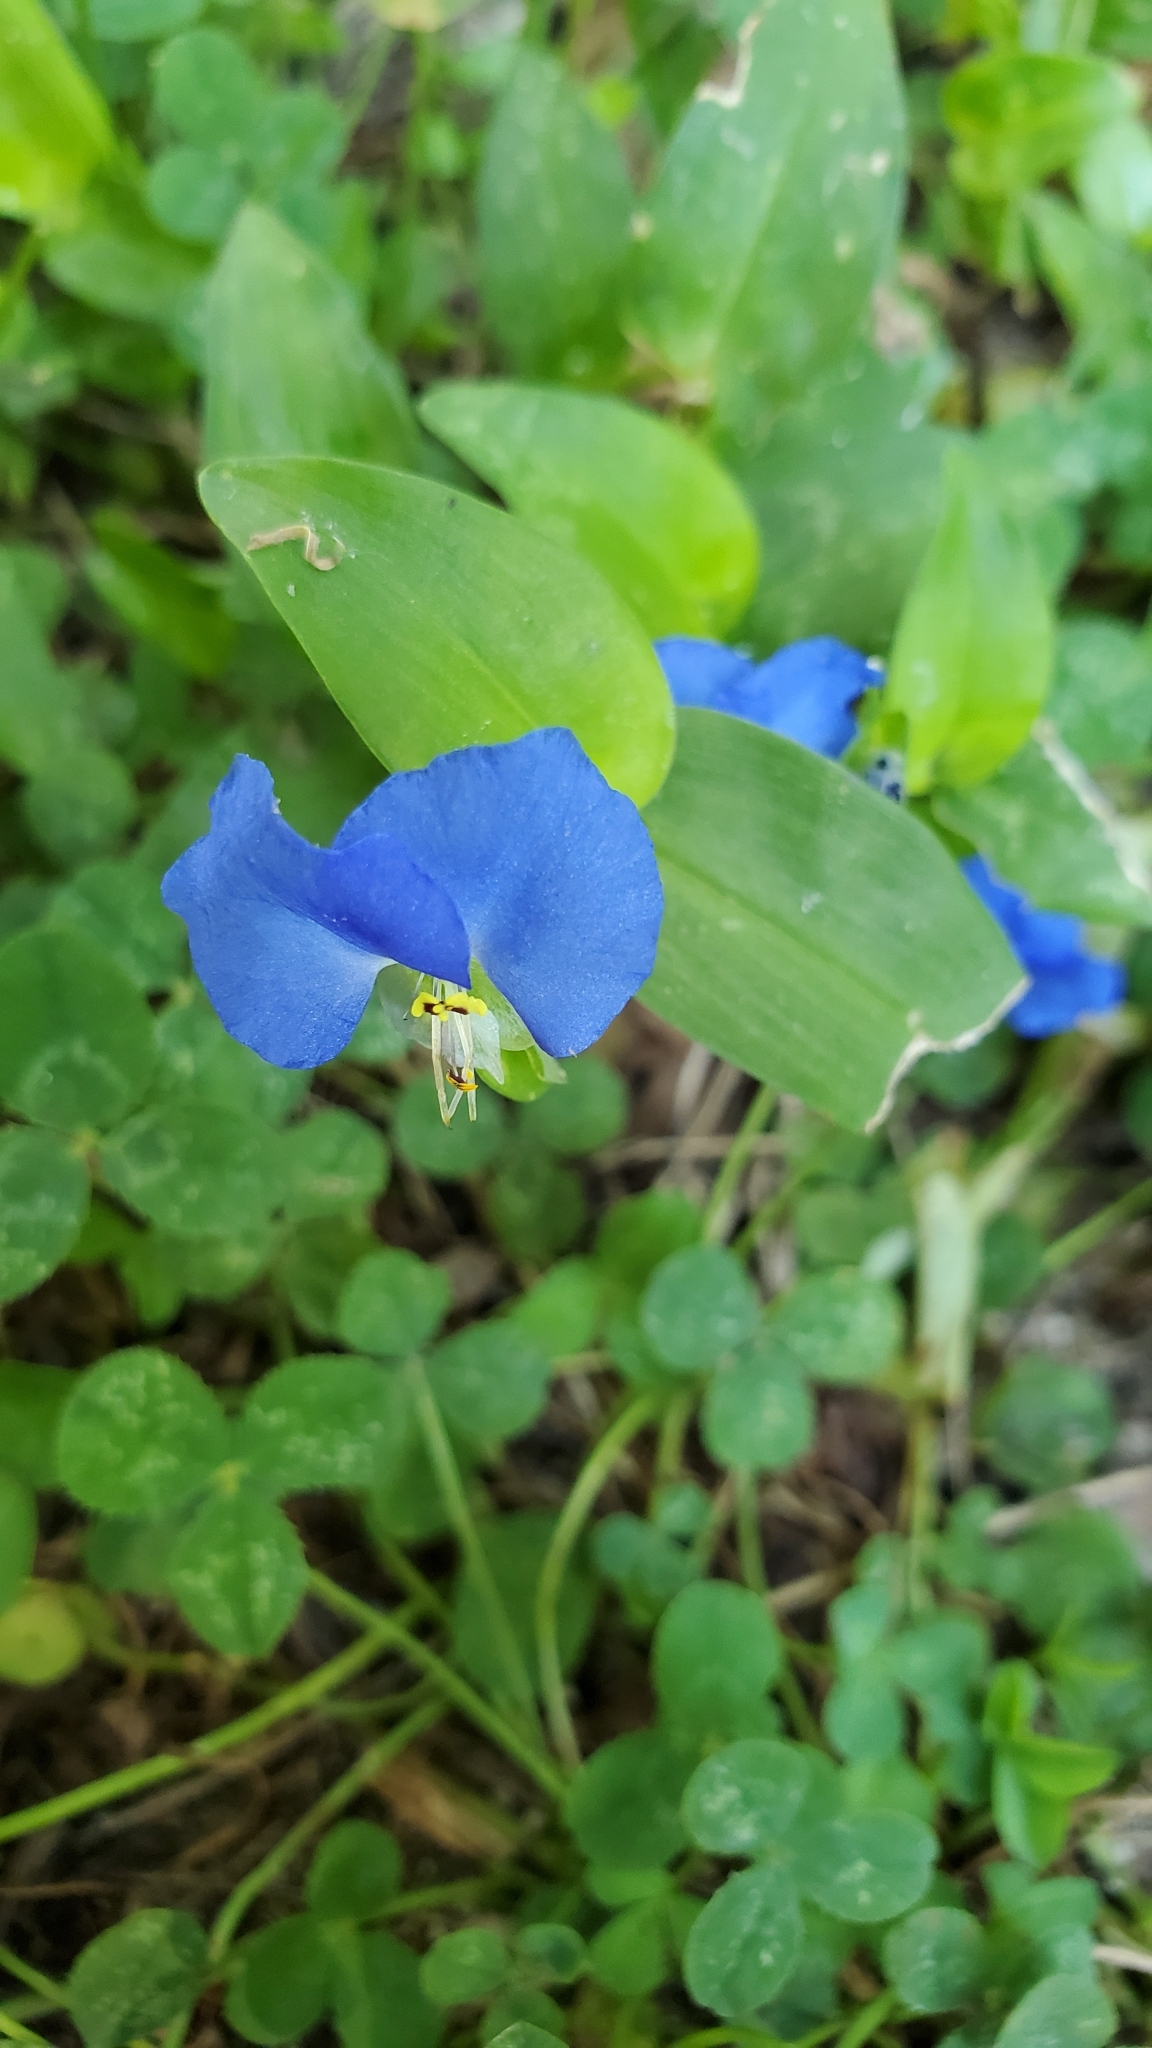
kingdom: Plantae
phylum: Tracheophyta
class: Liliopsida
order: Commelinales
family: Commelinaceae
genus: Commelina
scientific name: Commelina communis
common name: Asiatic dayflower
